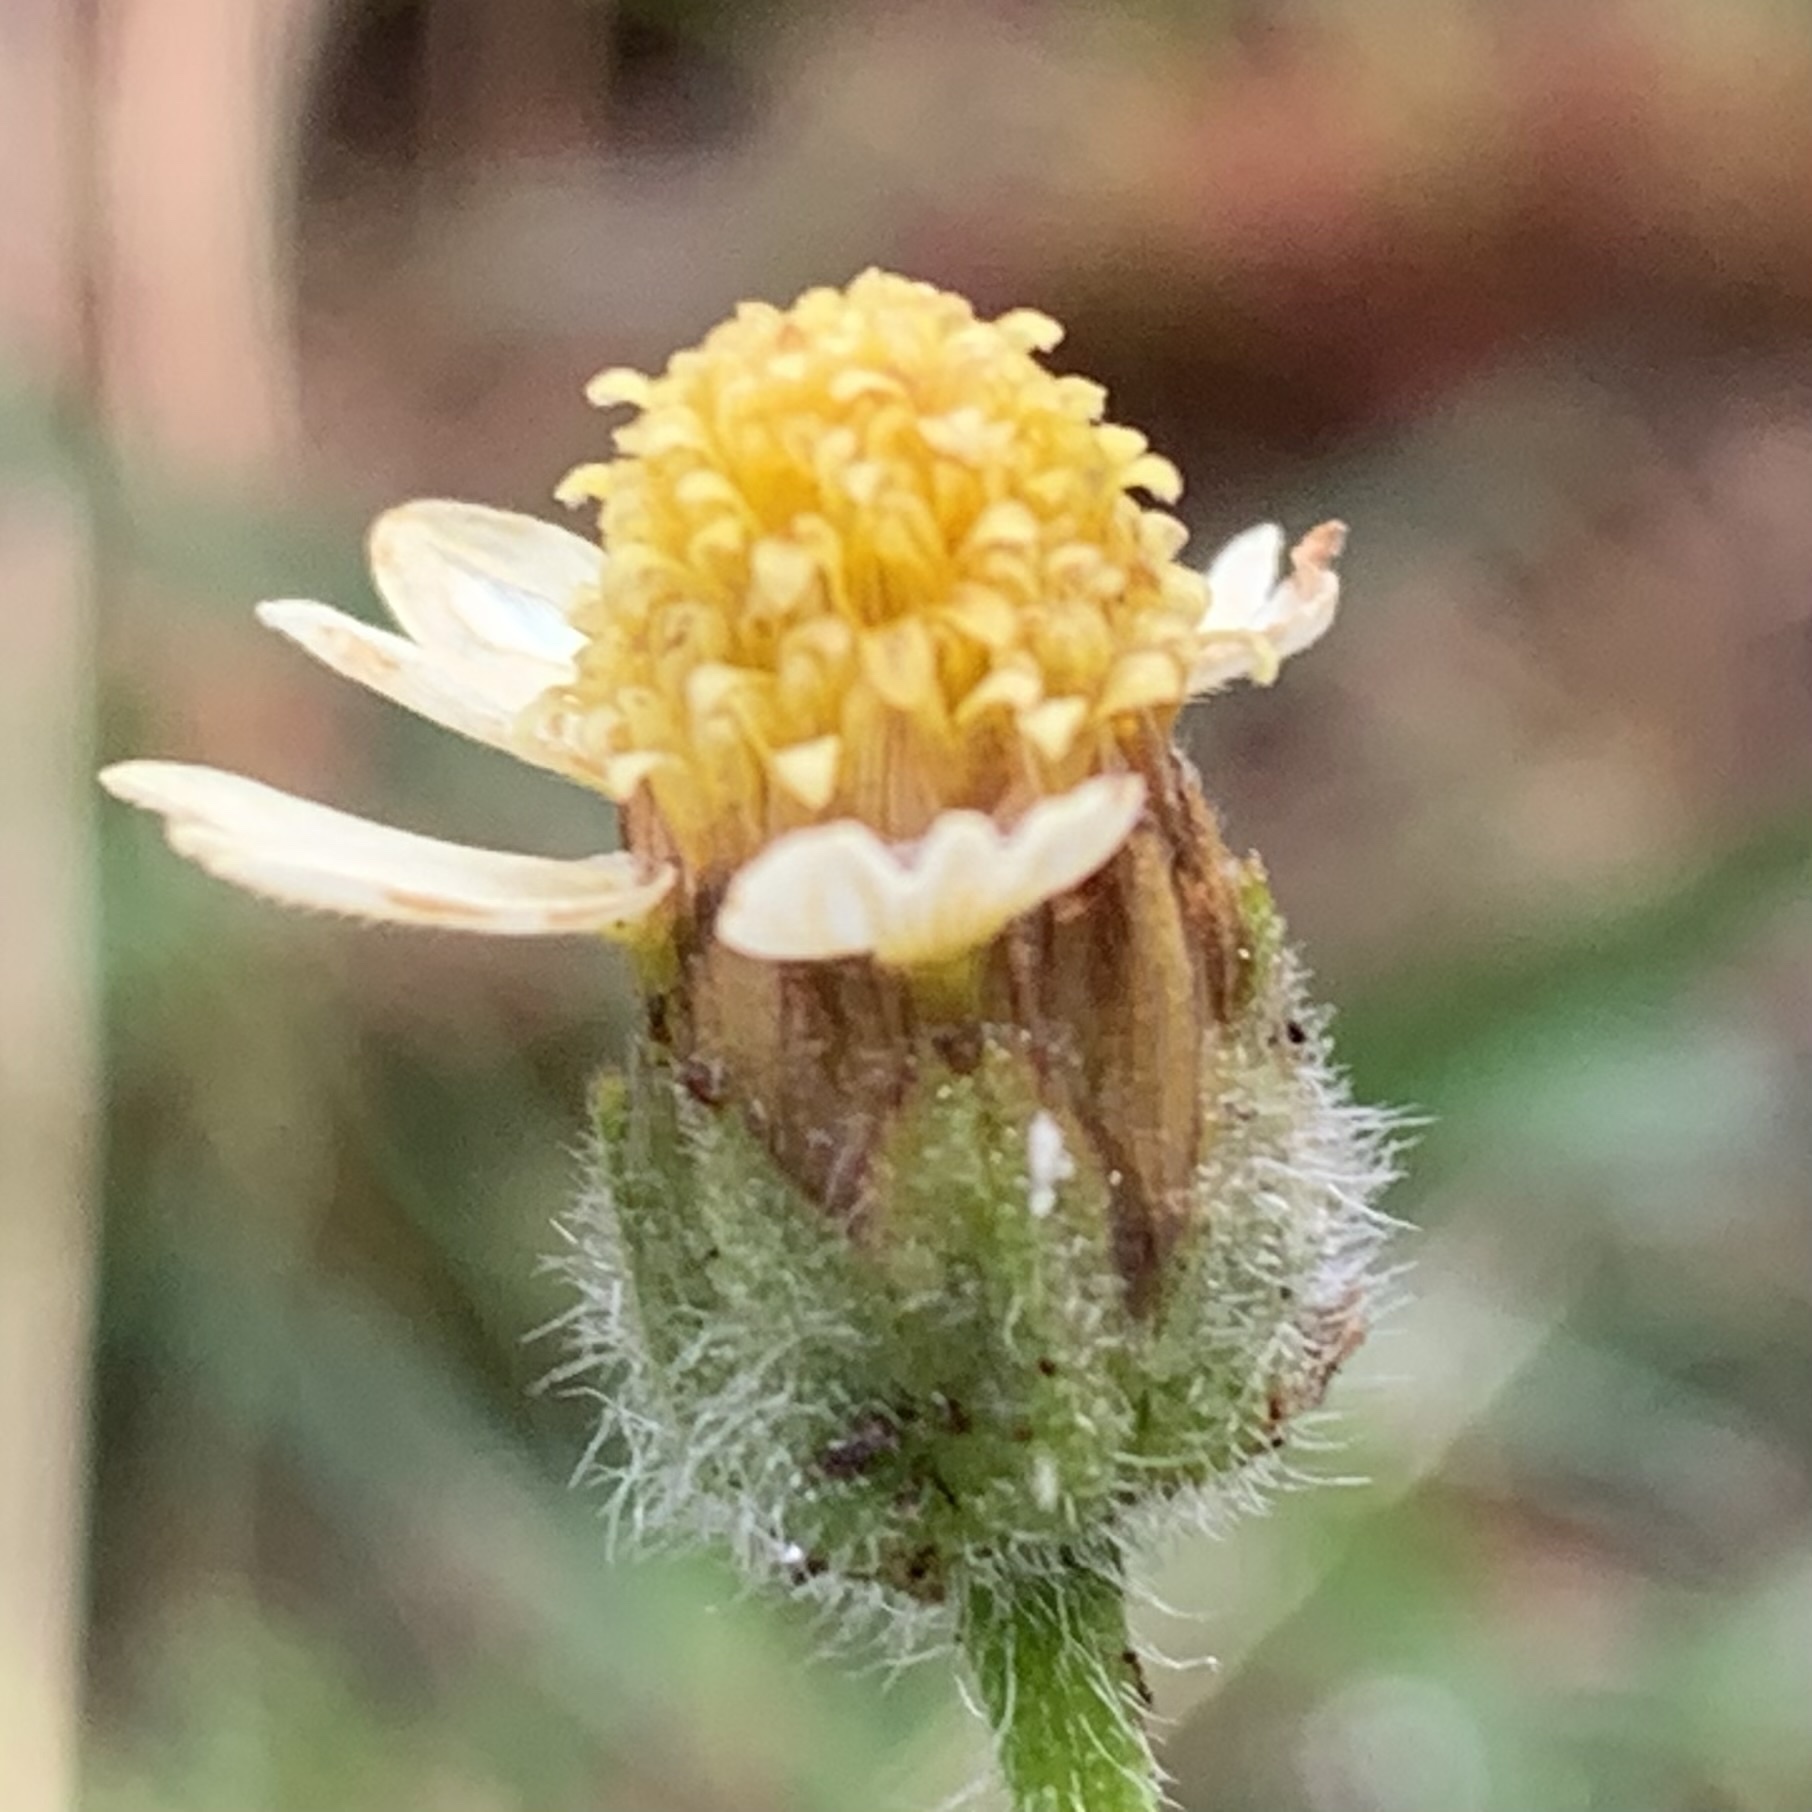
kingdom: Plantae
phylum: Tracheophyta
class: Magnoliopsida
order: Asterales
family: Asteraceae
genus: Tridax
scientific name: Tridax procumbens
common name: Coatbuttons
